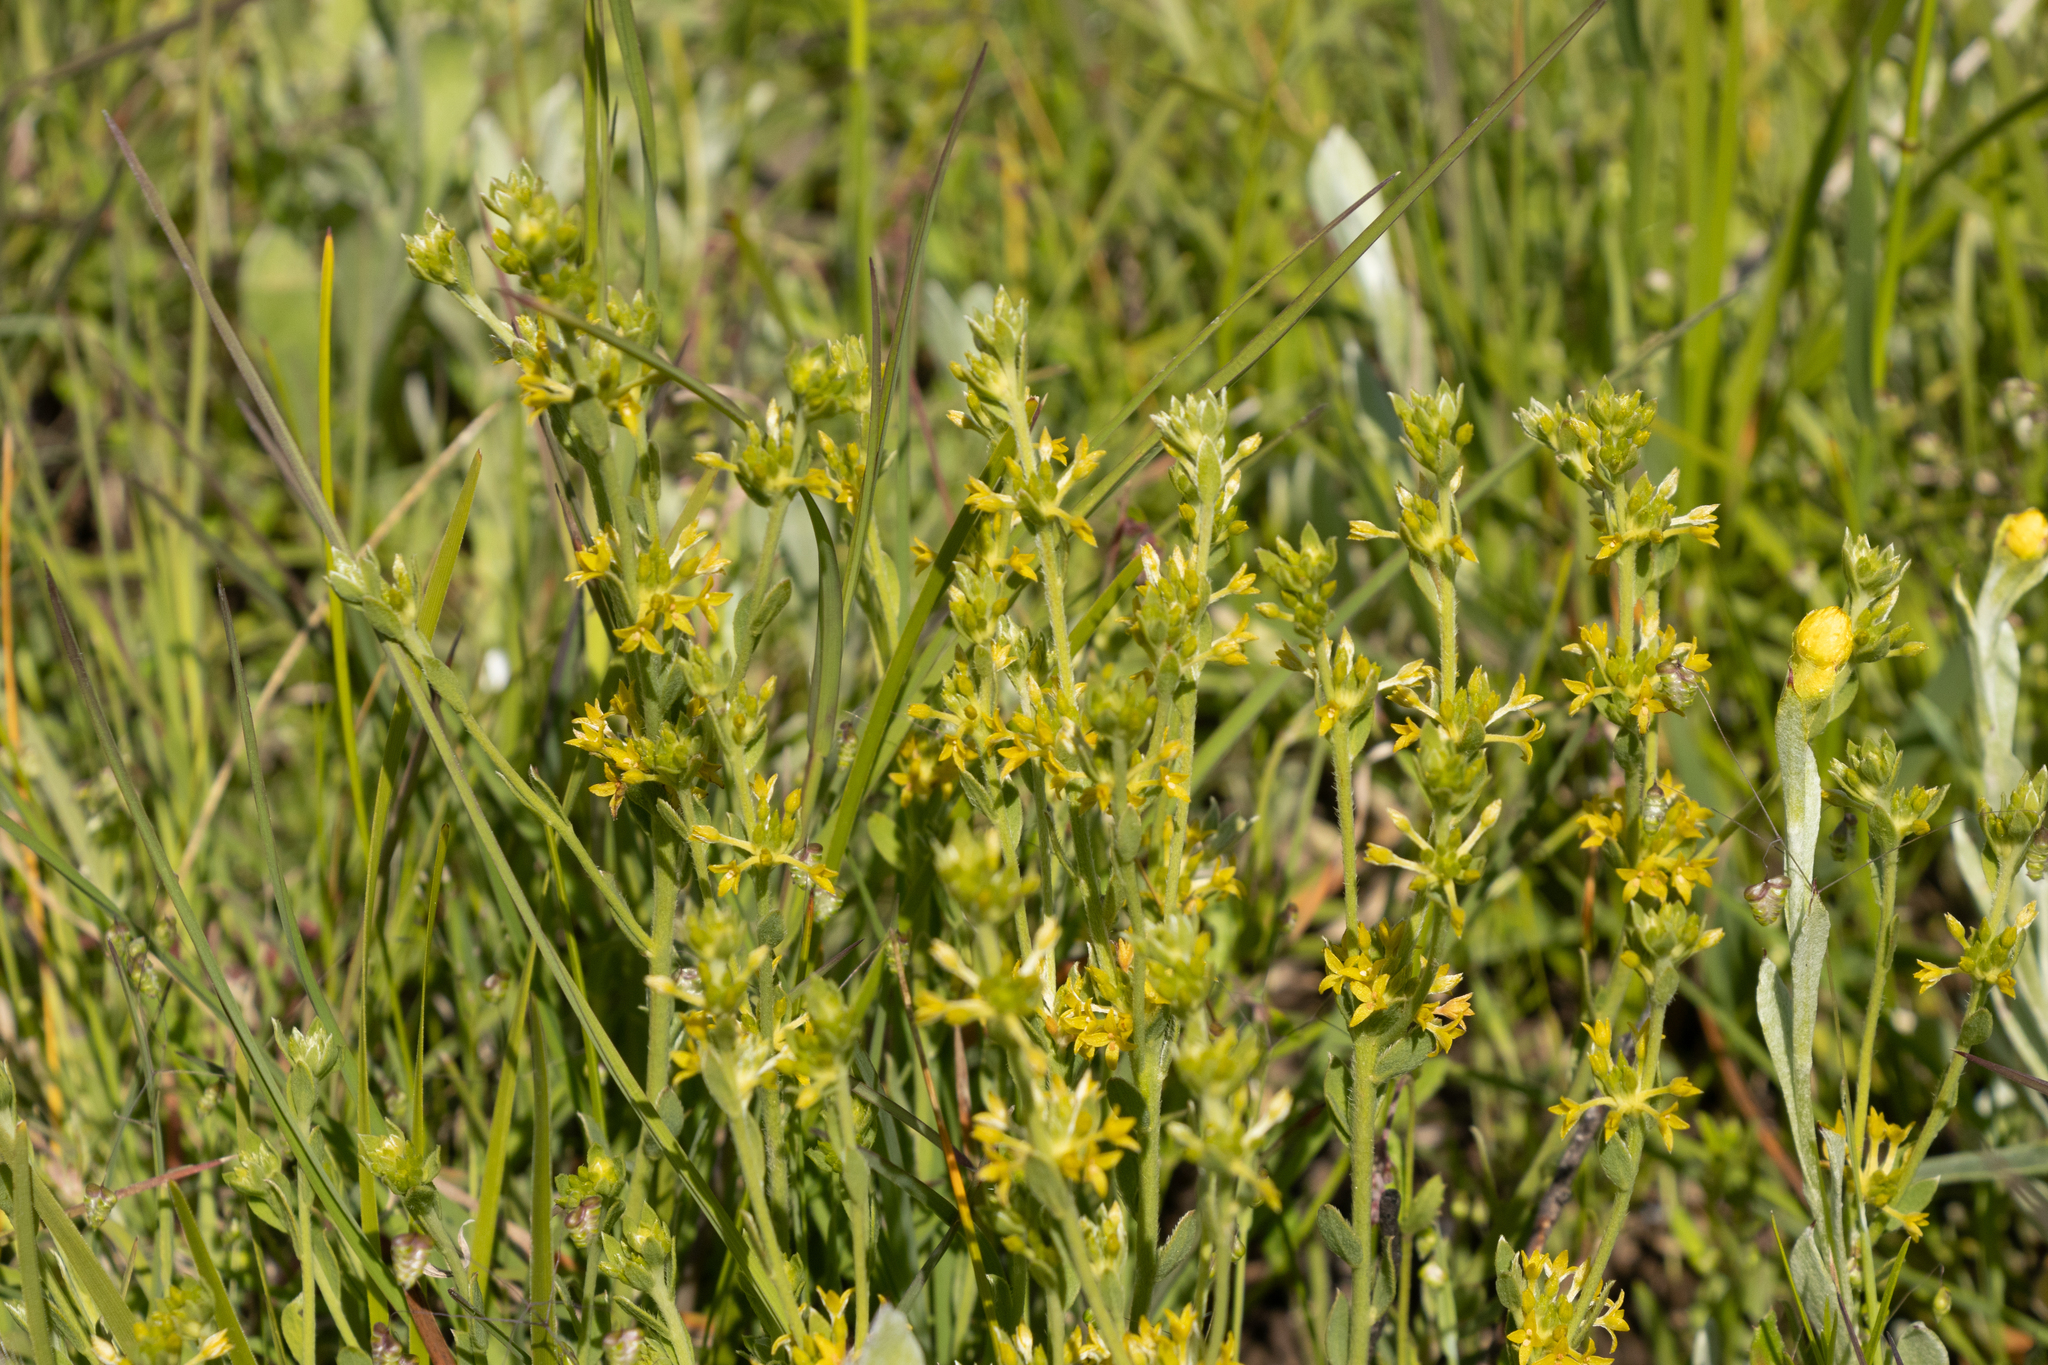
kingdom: Plantae
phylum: Tracheophyta
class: Magnoliopsida
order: Malvales
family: Thymelaeaceae
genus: Pimelea
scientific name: Pimelea curviflora
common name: Curved riceflower
